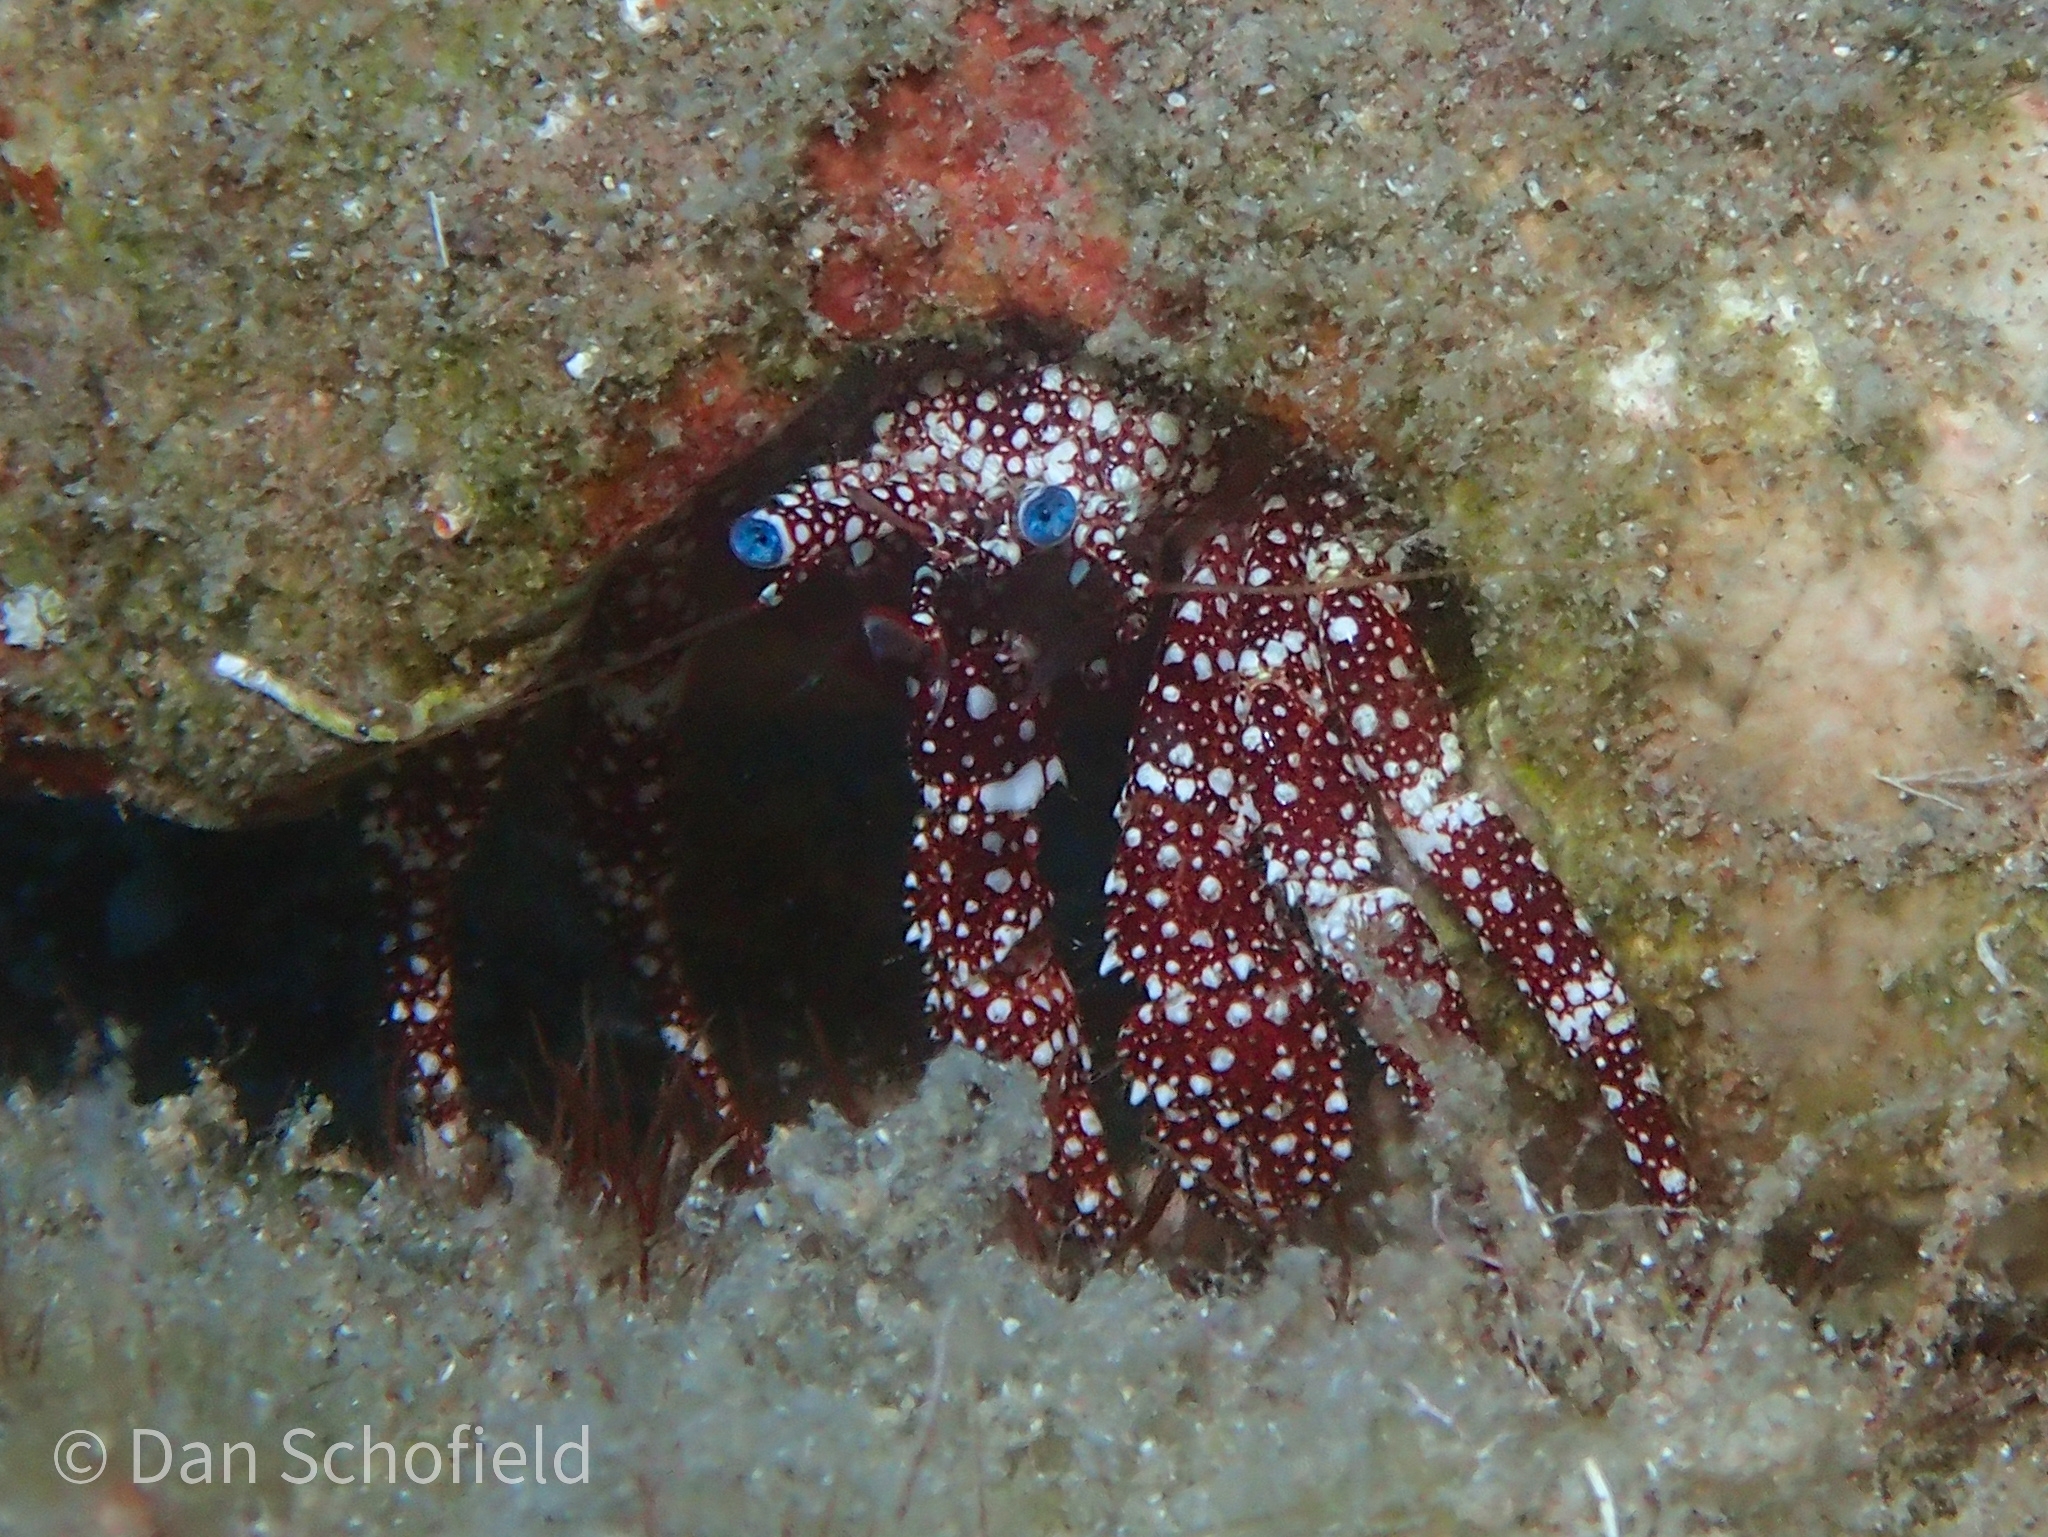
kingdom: Animalia
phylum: Arthropoda
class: Malacostraca
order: Decapoda
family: Diogenidae
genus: Paguristes
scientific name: Paguristes puncticeps
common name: White speckled hermit
